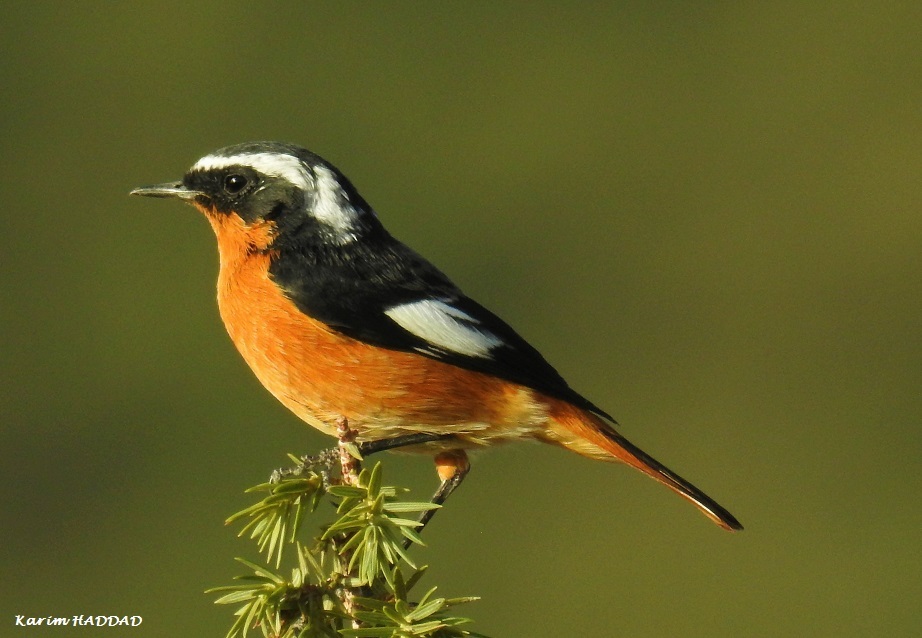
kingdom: Animalia
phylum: Chordata
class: Aves
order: Passeriformes
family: Muscicapidae
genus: Phoenicurus
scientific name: Phoenicurus moussieri
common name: Moussier's redstart
